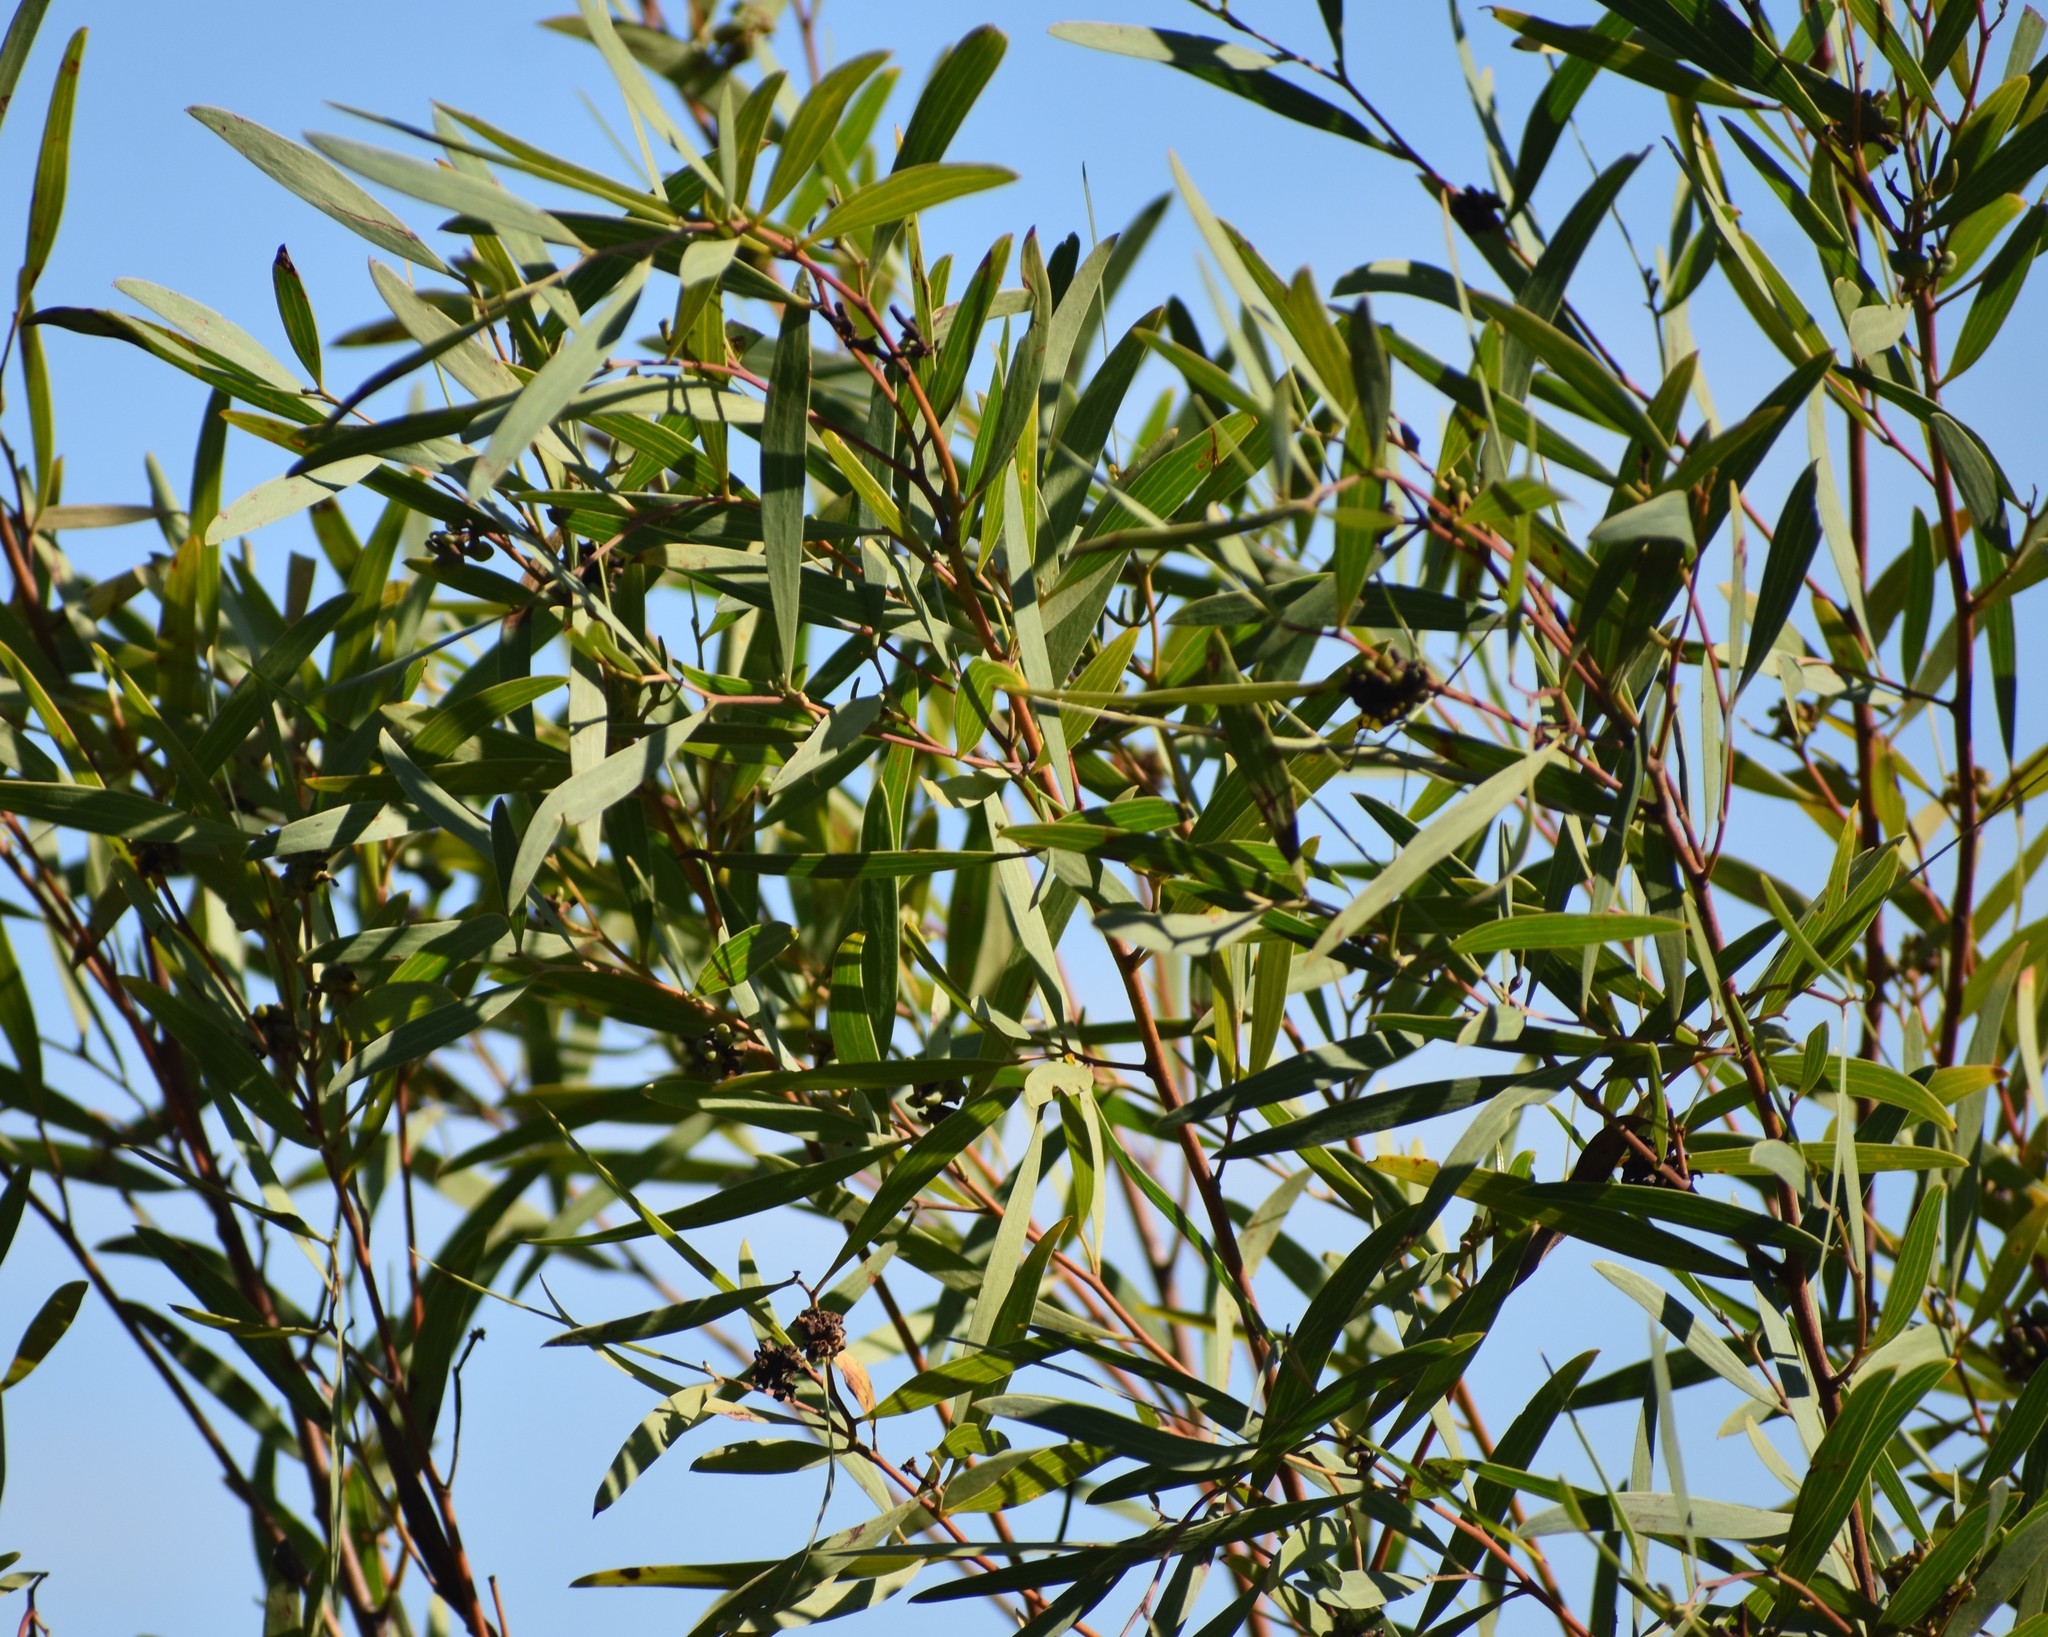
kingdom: Plantae
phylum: Tracheophyta
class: Magnoliopsida
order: Fabales
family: Fabaceae
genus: Acacia
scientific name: Acacia cyclops
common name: Coastal wattle
